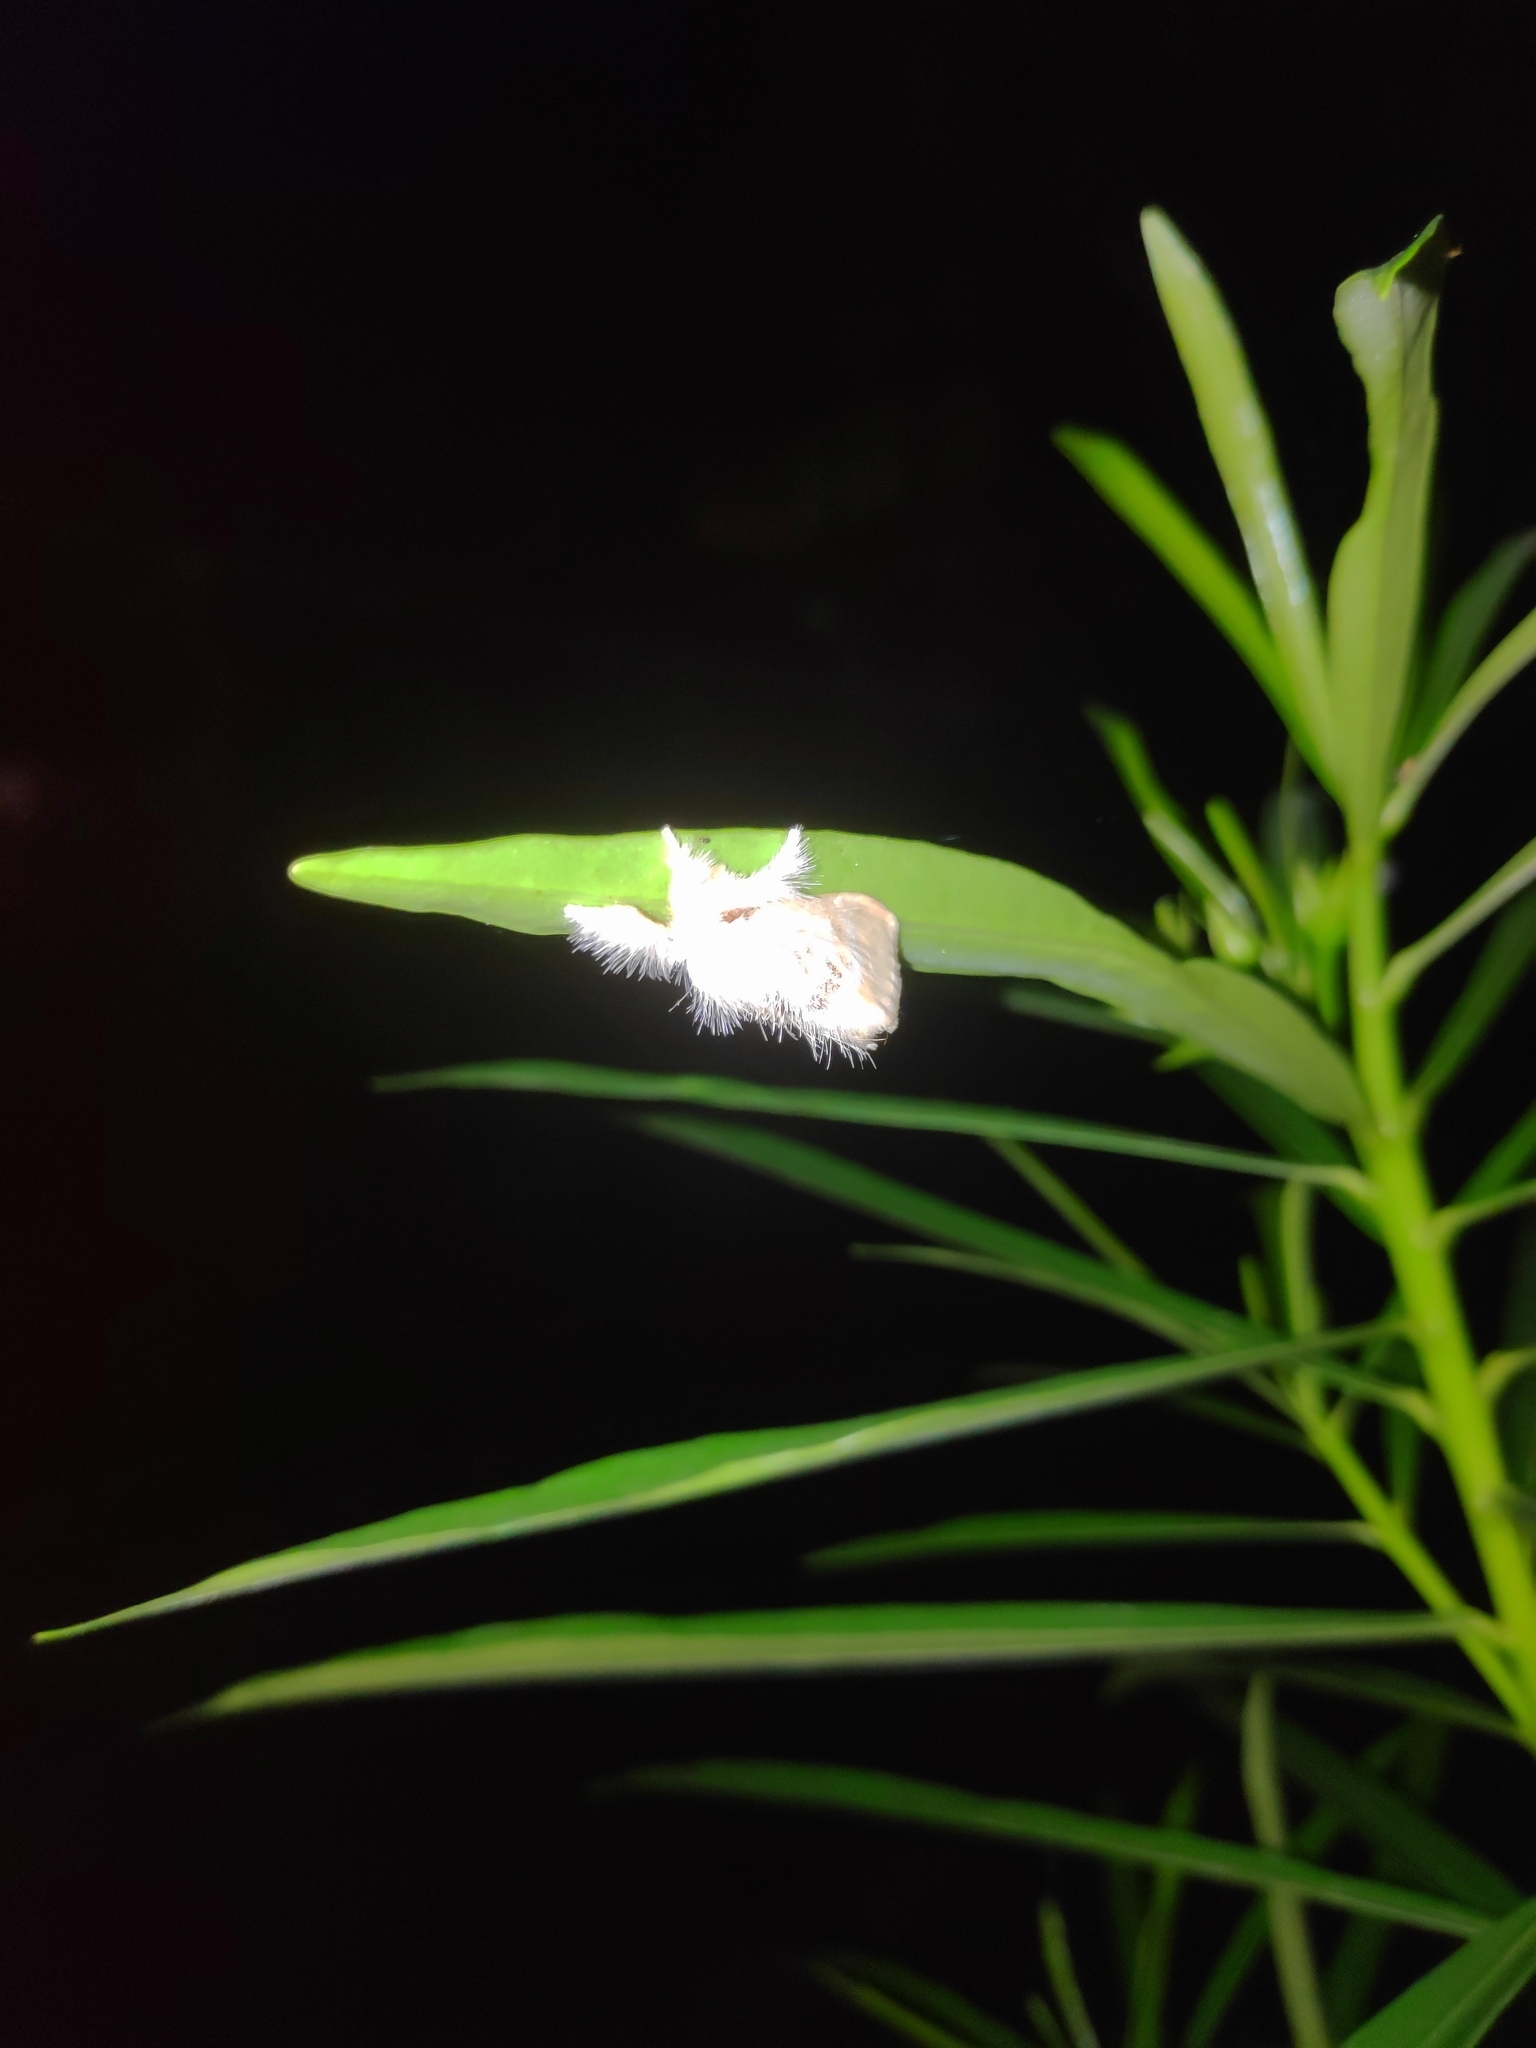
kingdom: Animalia
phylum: Arthropoda
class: Insecta
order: Lepidoptera
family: Erebidae
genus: Sphrageidus
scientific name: Sphrageidus similis
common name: Yellow-tail
